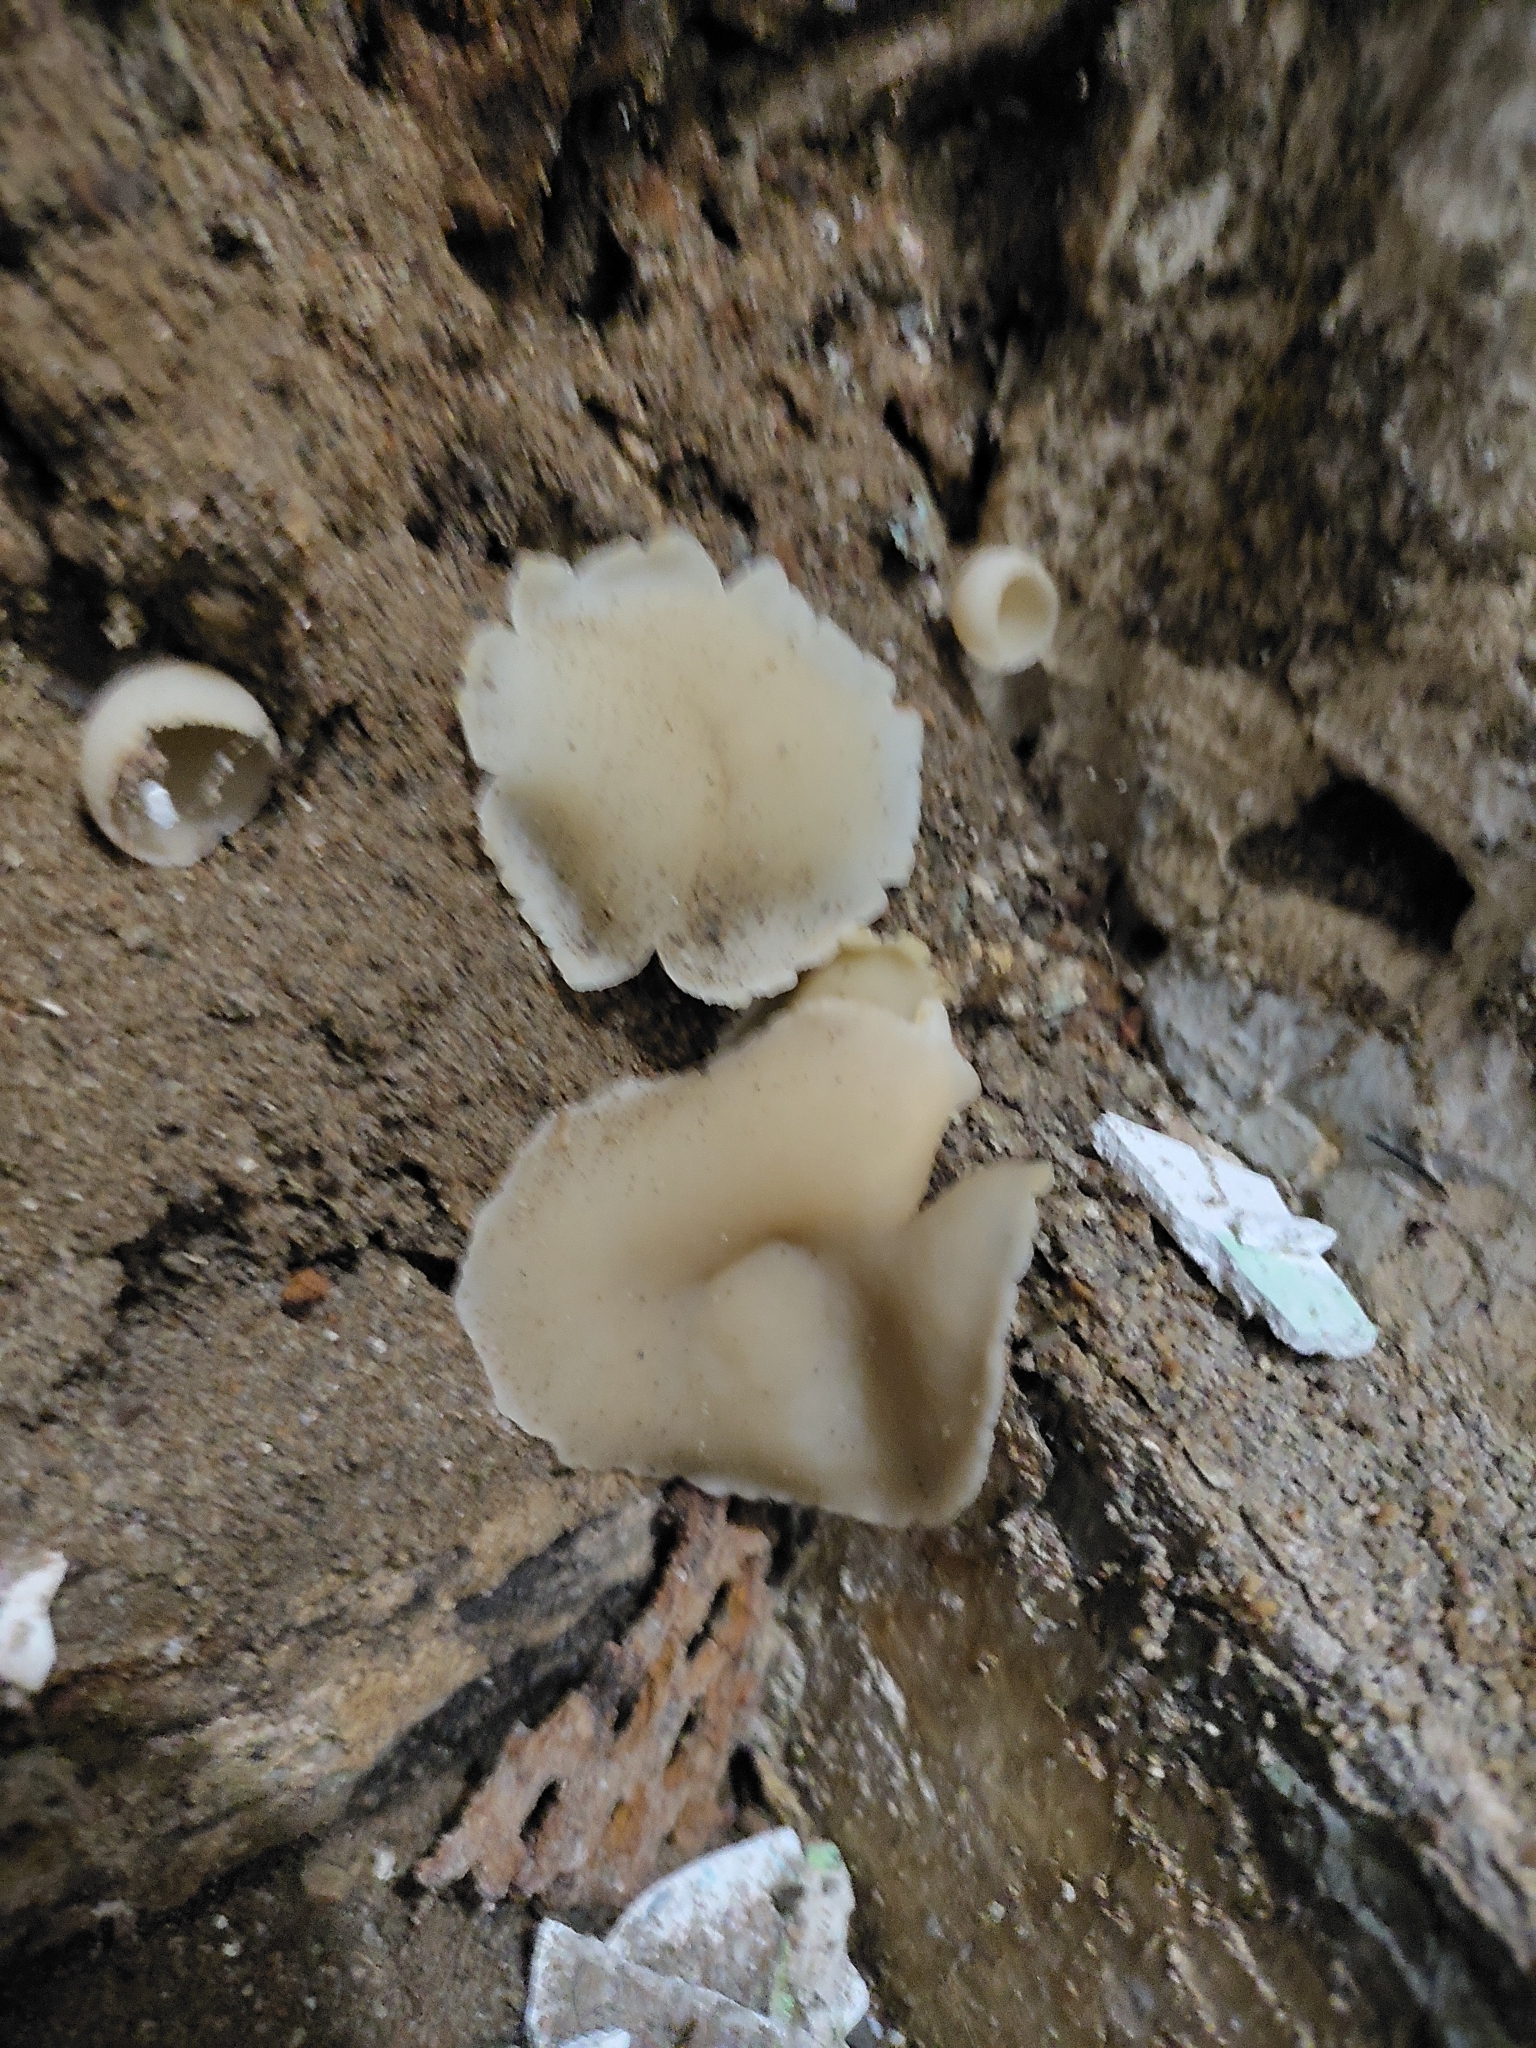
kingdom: Fungi
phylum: Ascomycota
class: Pezizomycetes
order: Pezizales
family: Pezizaceae
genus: Peziza
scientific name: Peziza domiciliana
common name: Home cup
